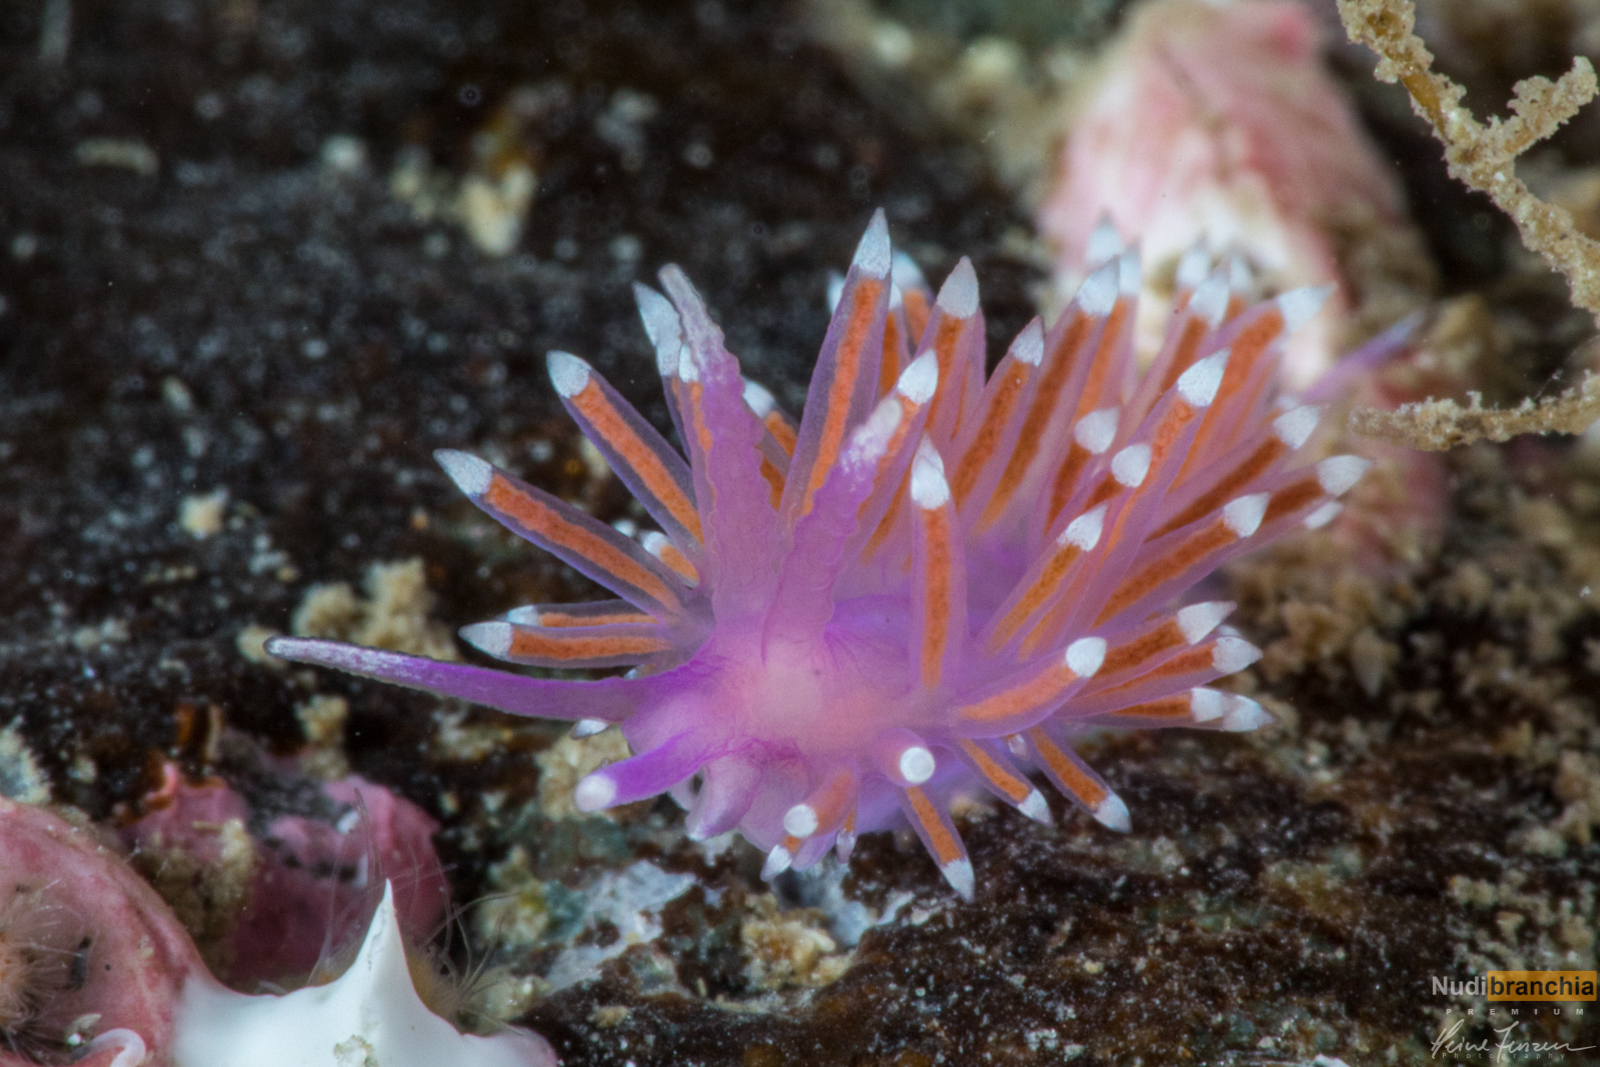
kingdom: Animalia
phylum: Mollusca
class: Gastropoda
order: Nudibranchia
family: Flabellinidae
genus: Edmundsella
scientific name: Edmundsella pedata
